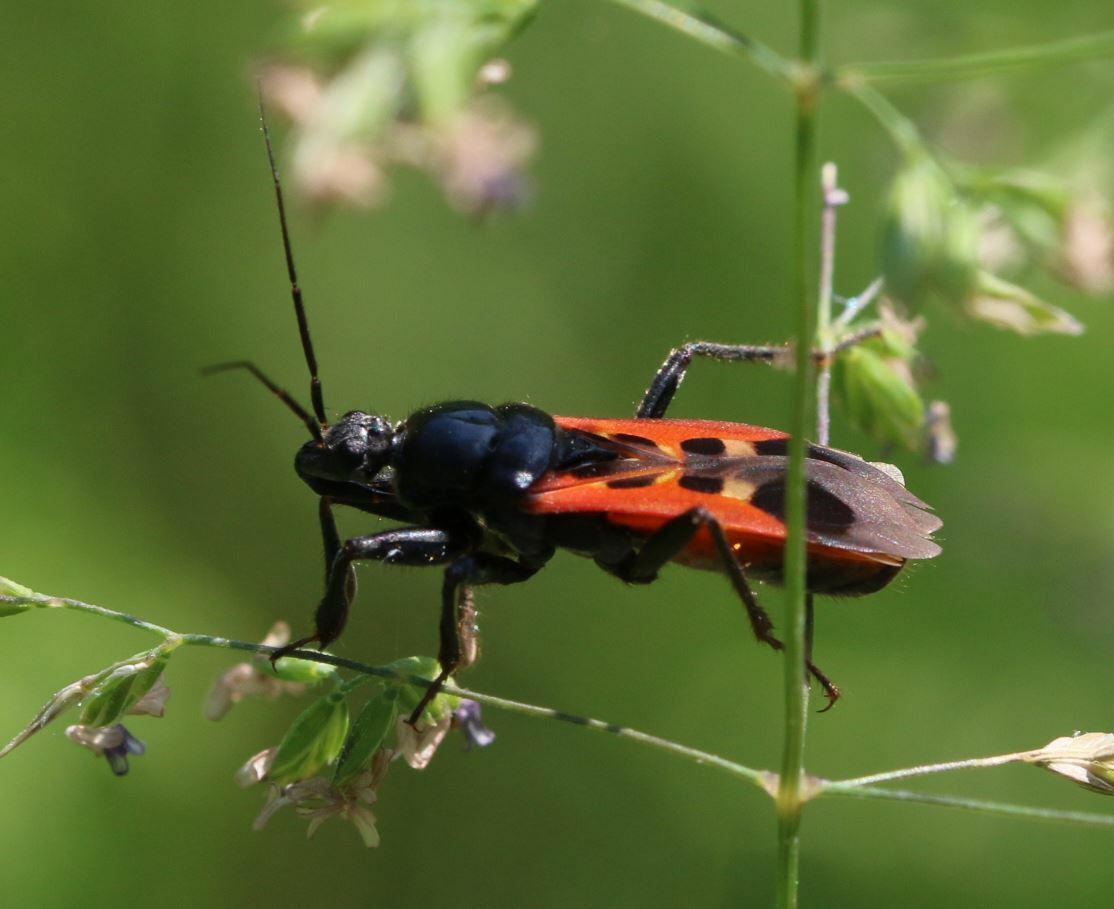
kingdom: Animalia
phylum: Arthropoda
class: Insecta
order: Hemiptera
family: Reduviidae
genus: Peirates
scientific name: Peirates hybridus
